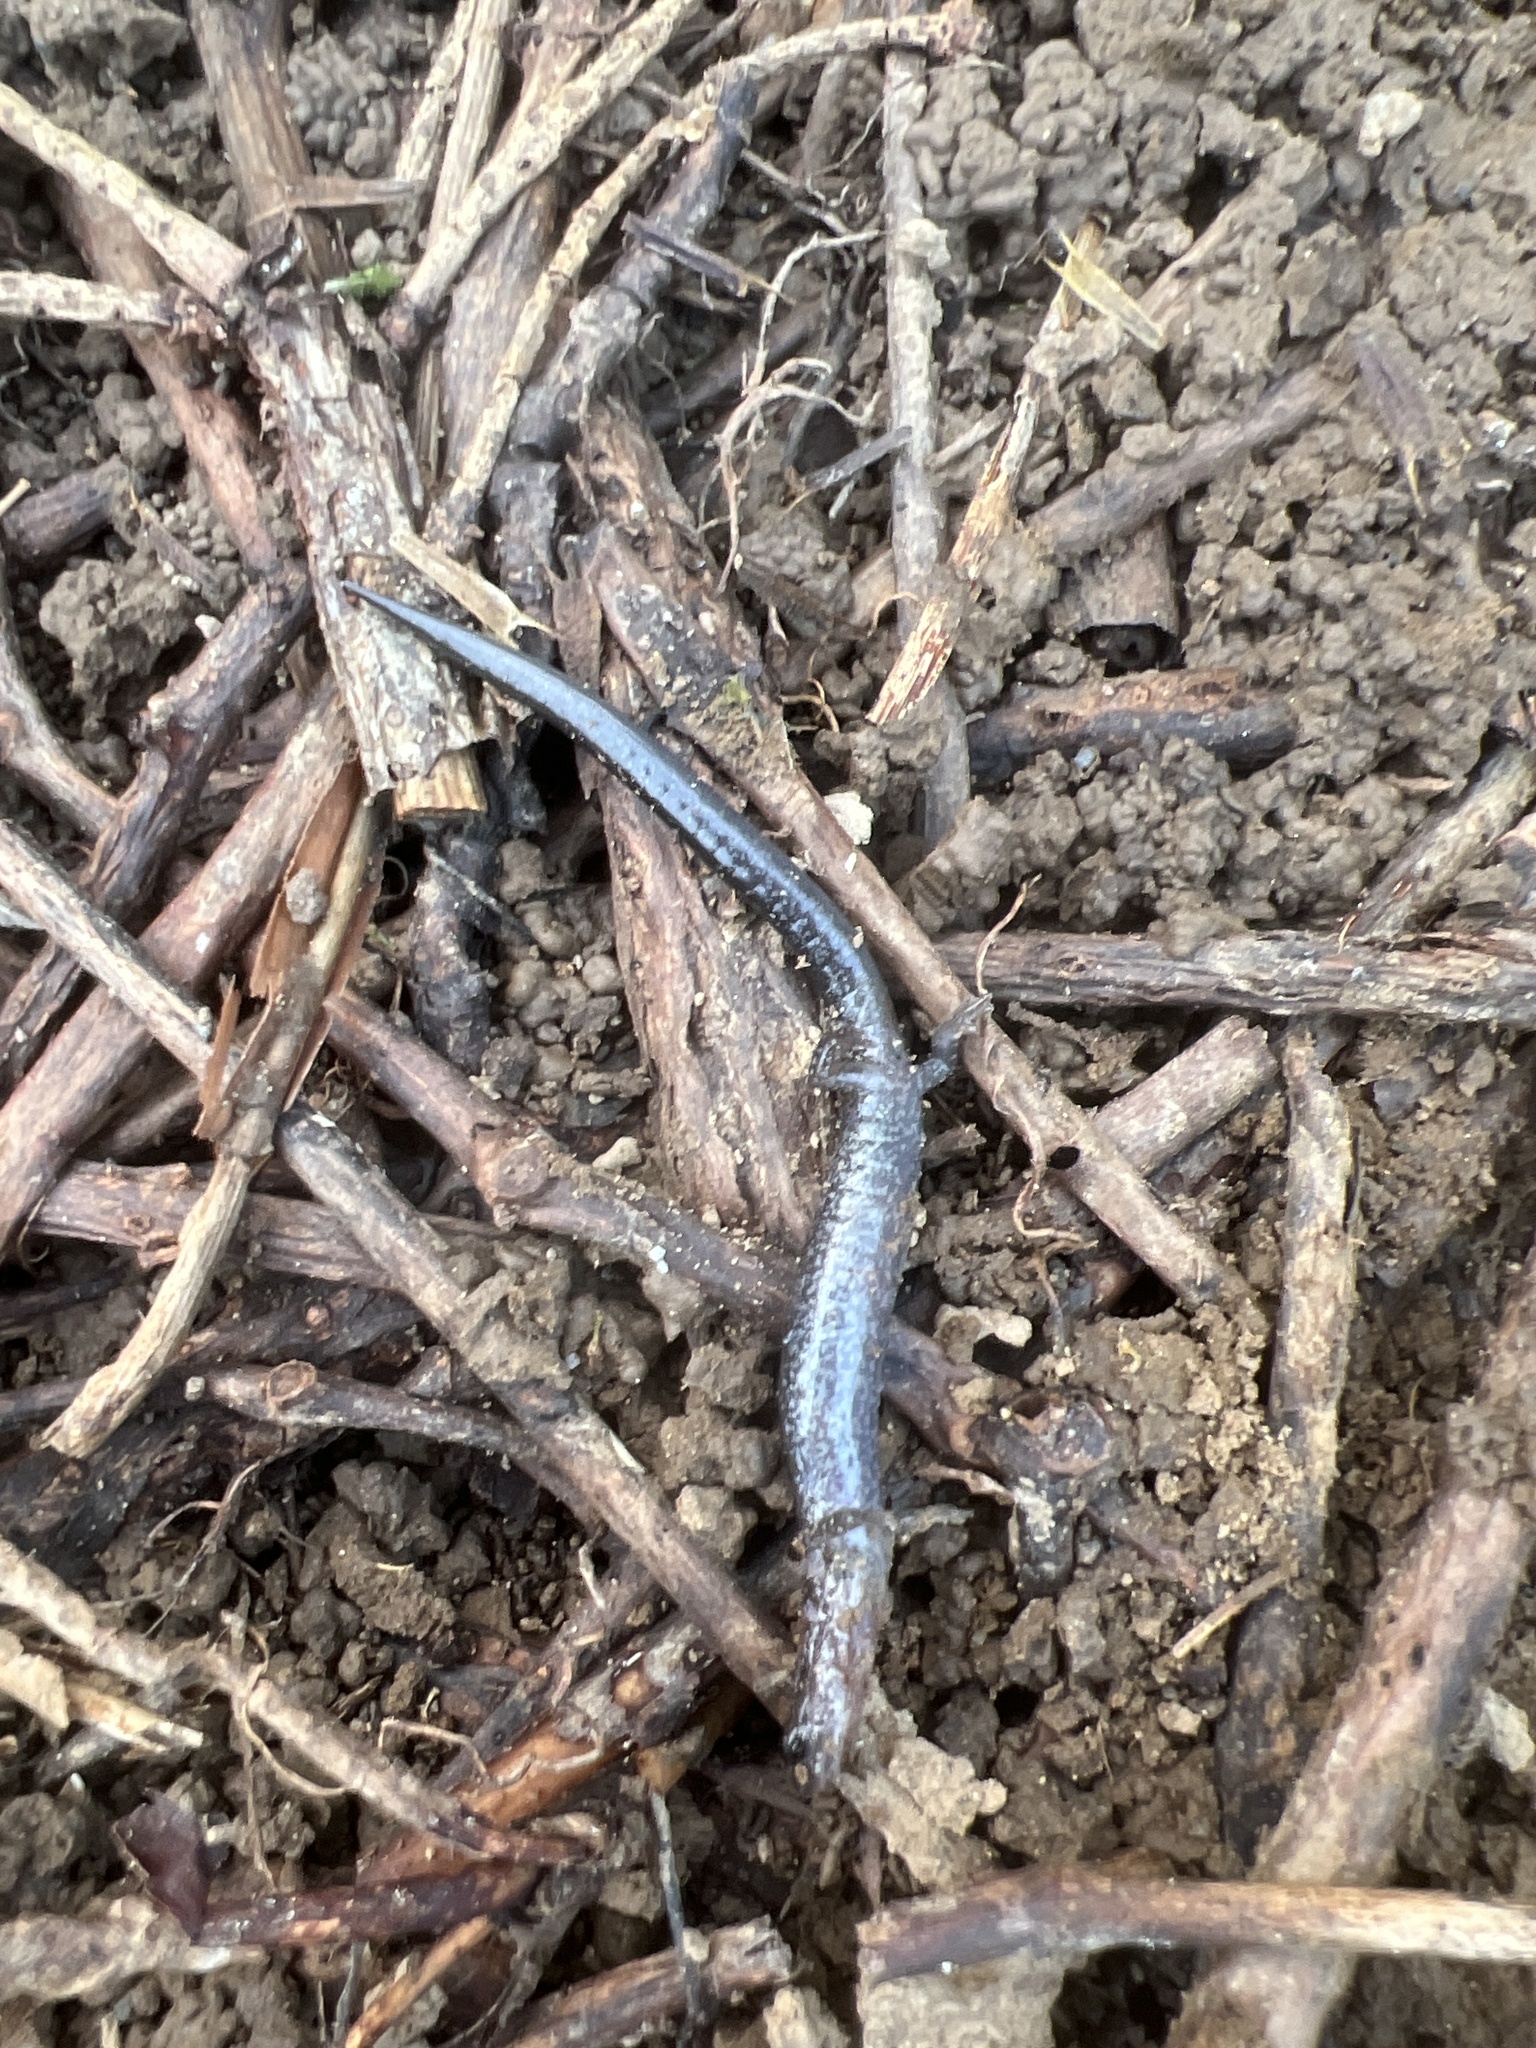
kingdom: Animalia
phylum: Chordata
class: Amphibia
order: Caudata
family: Plethodontidae
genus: Plethodon
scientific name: Plethodon cinereus
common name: Redback salamander
